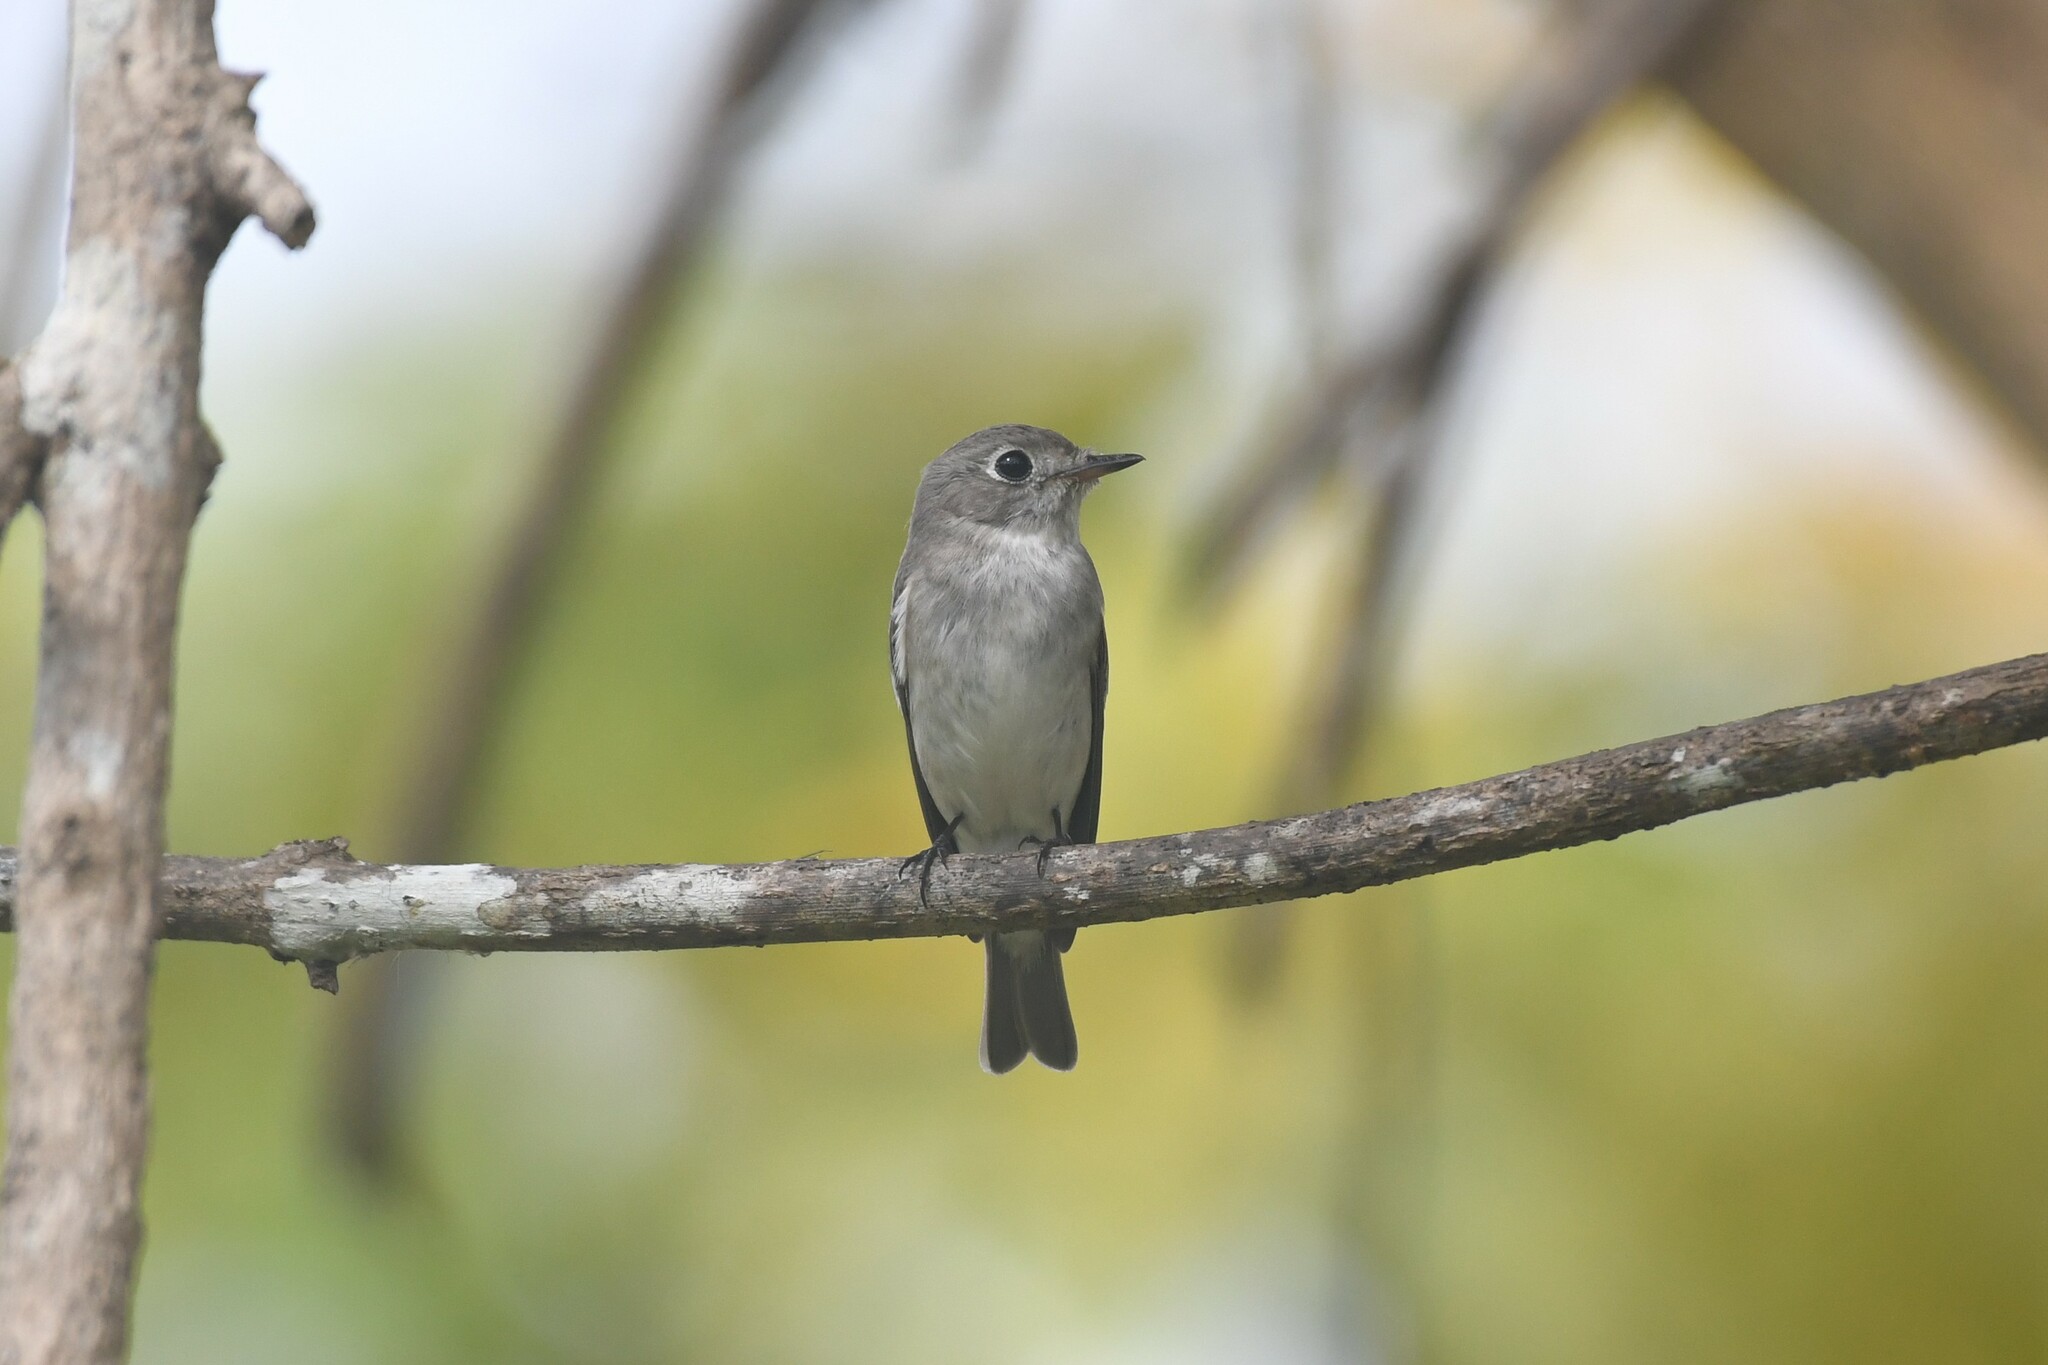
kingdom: Animalia
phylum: Chordata
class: Aves
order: Passeriformes
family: Muscicapidae
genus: Muscicapa
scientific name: Muscicapa latirostris
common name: Asian brown flycatcher
